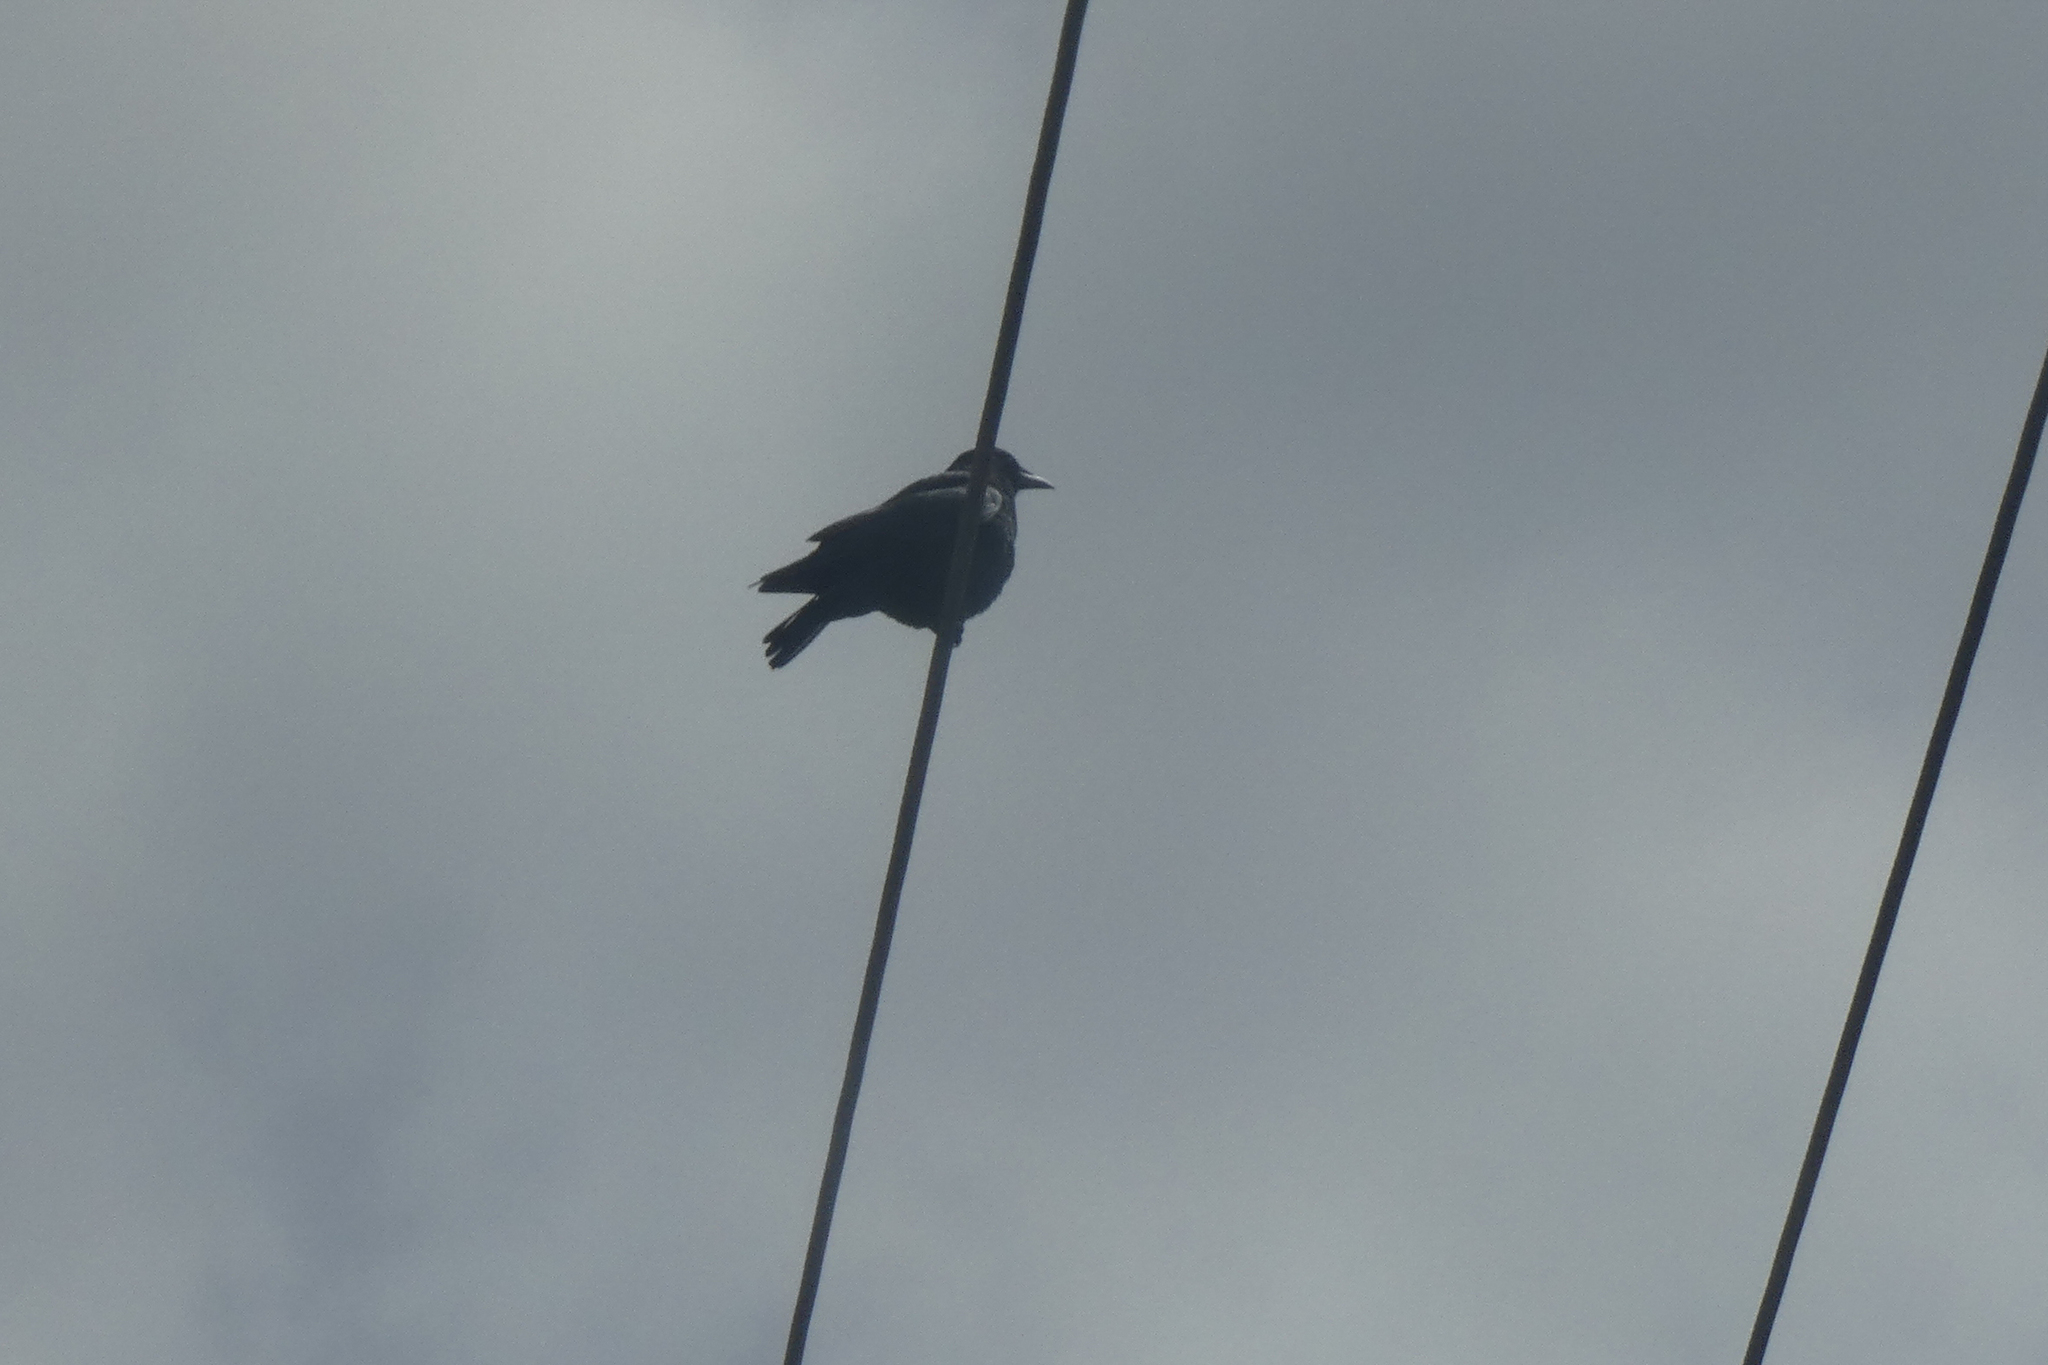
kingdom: Animalia
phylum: Chordata
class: Aves
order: Passeriformes
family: Corvidae
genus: Corvus
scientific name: Corvus brachyrhynchos
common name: American crow
